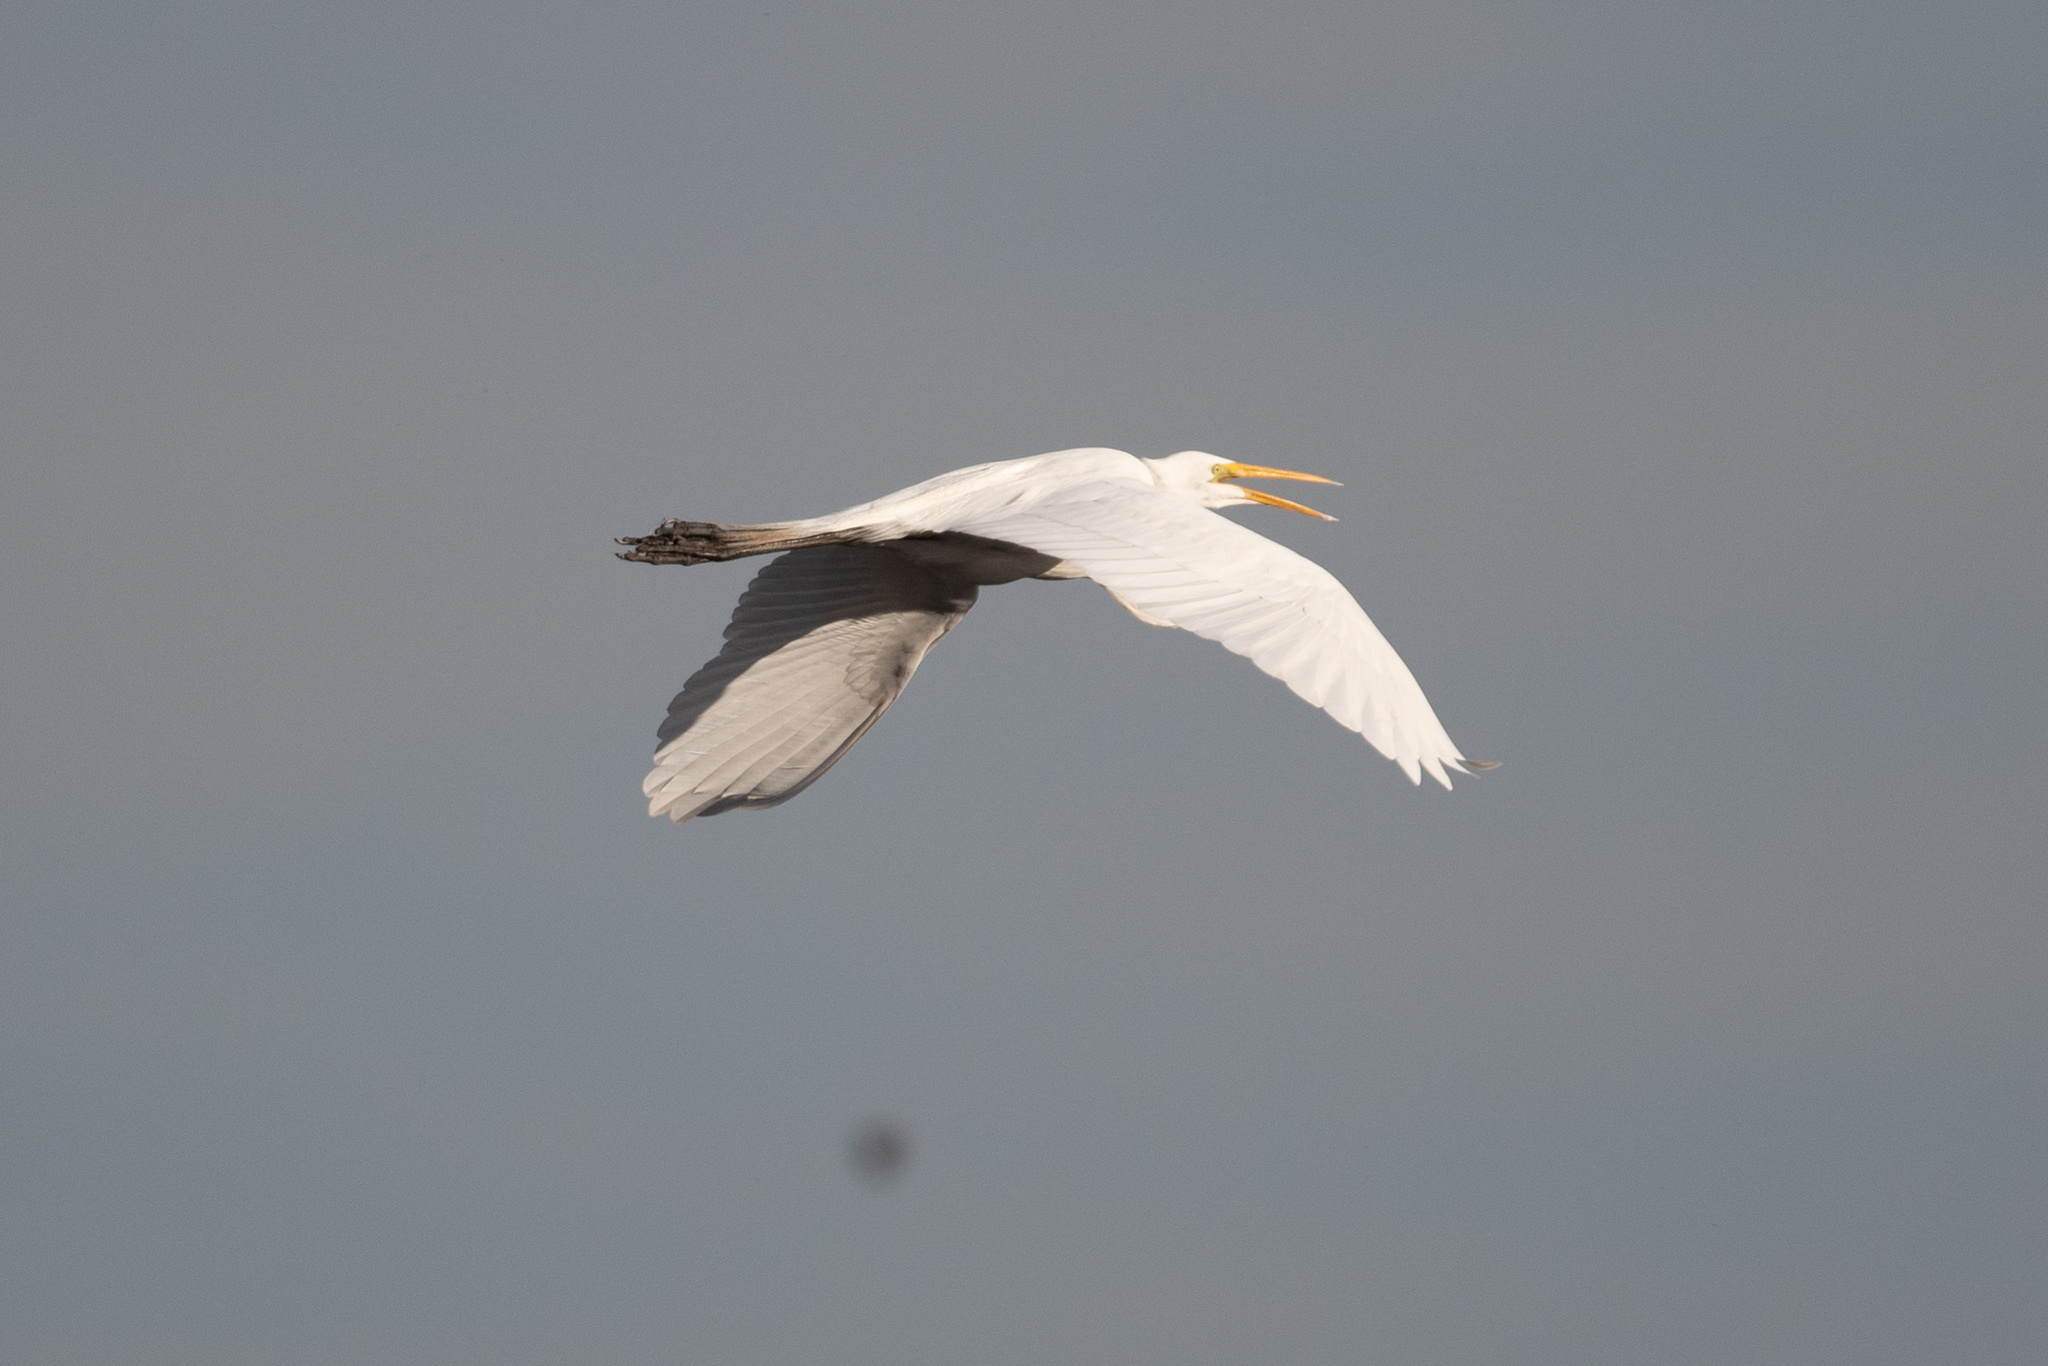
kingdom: Animalia
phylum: Chordata
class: Aves
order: Pelecaniformes
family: Ardeidae
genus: Ardea
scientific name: Ardea alba
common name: Great egret
